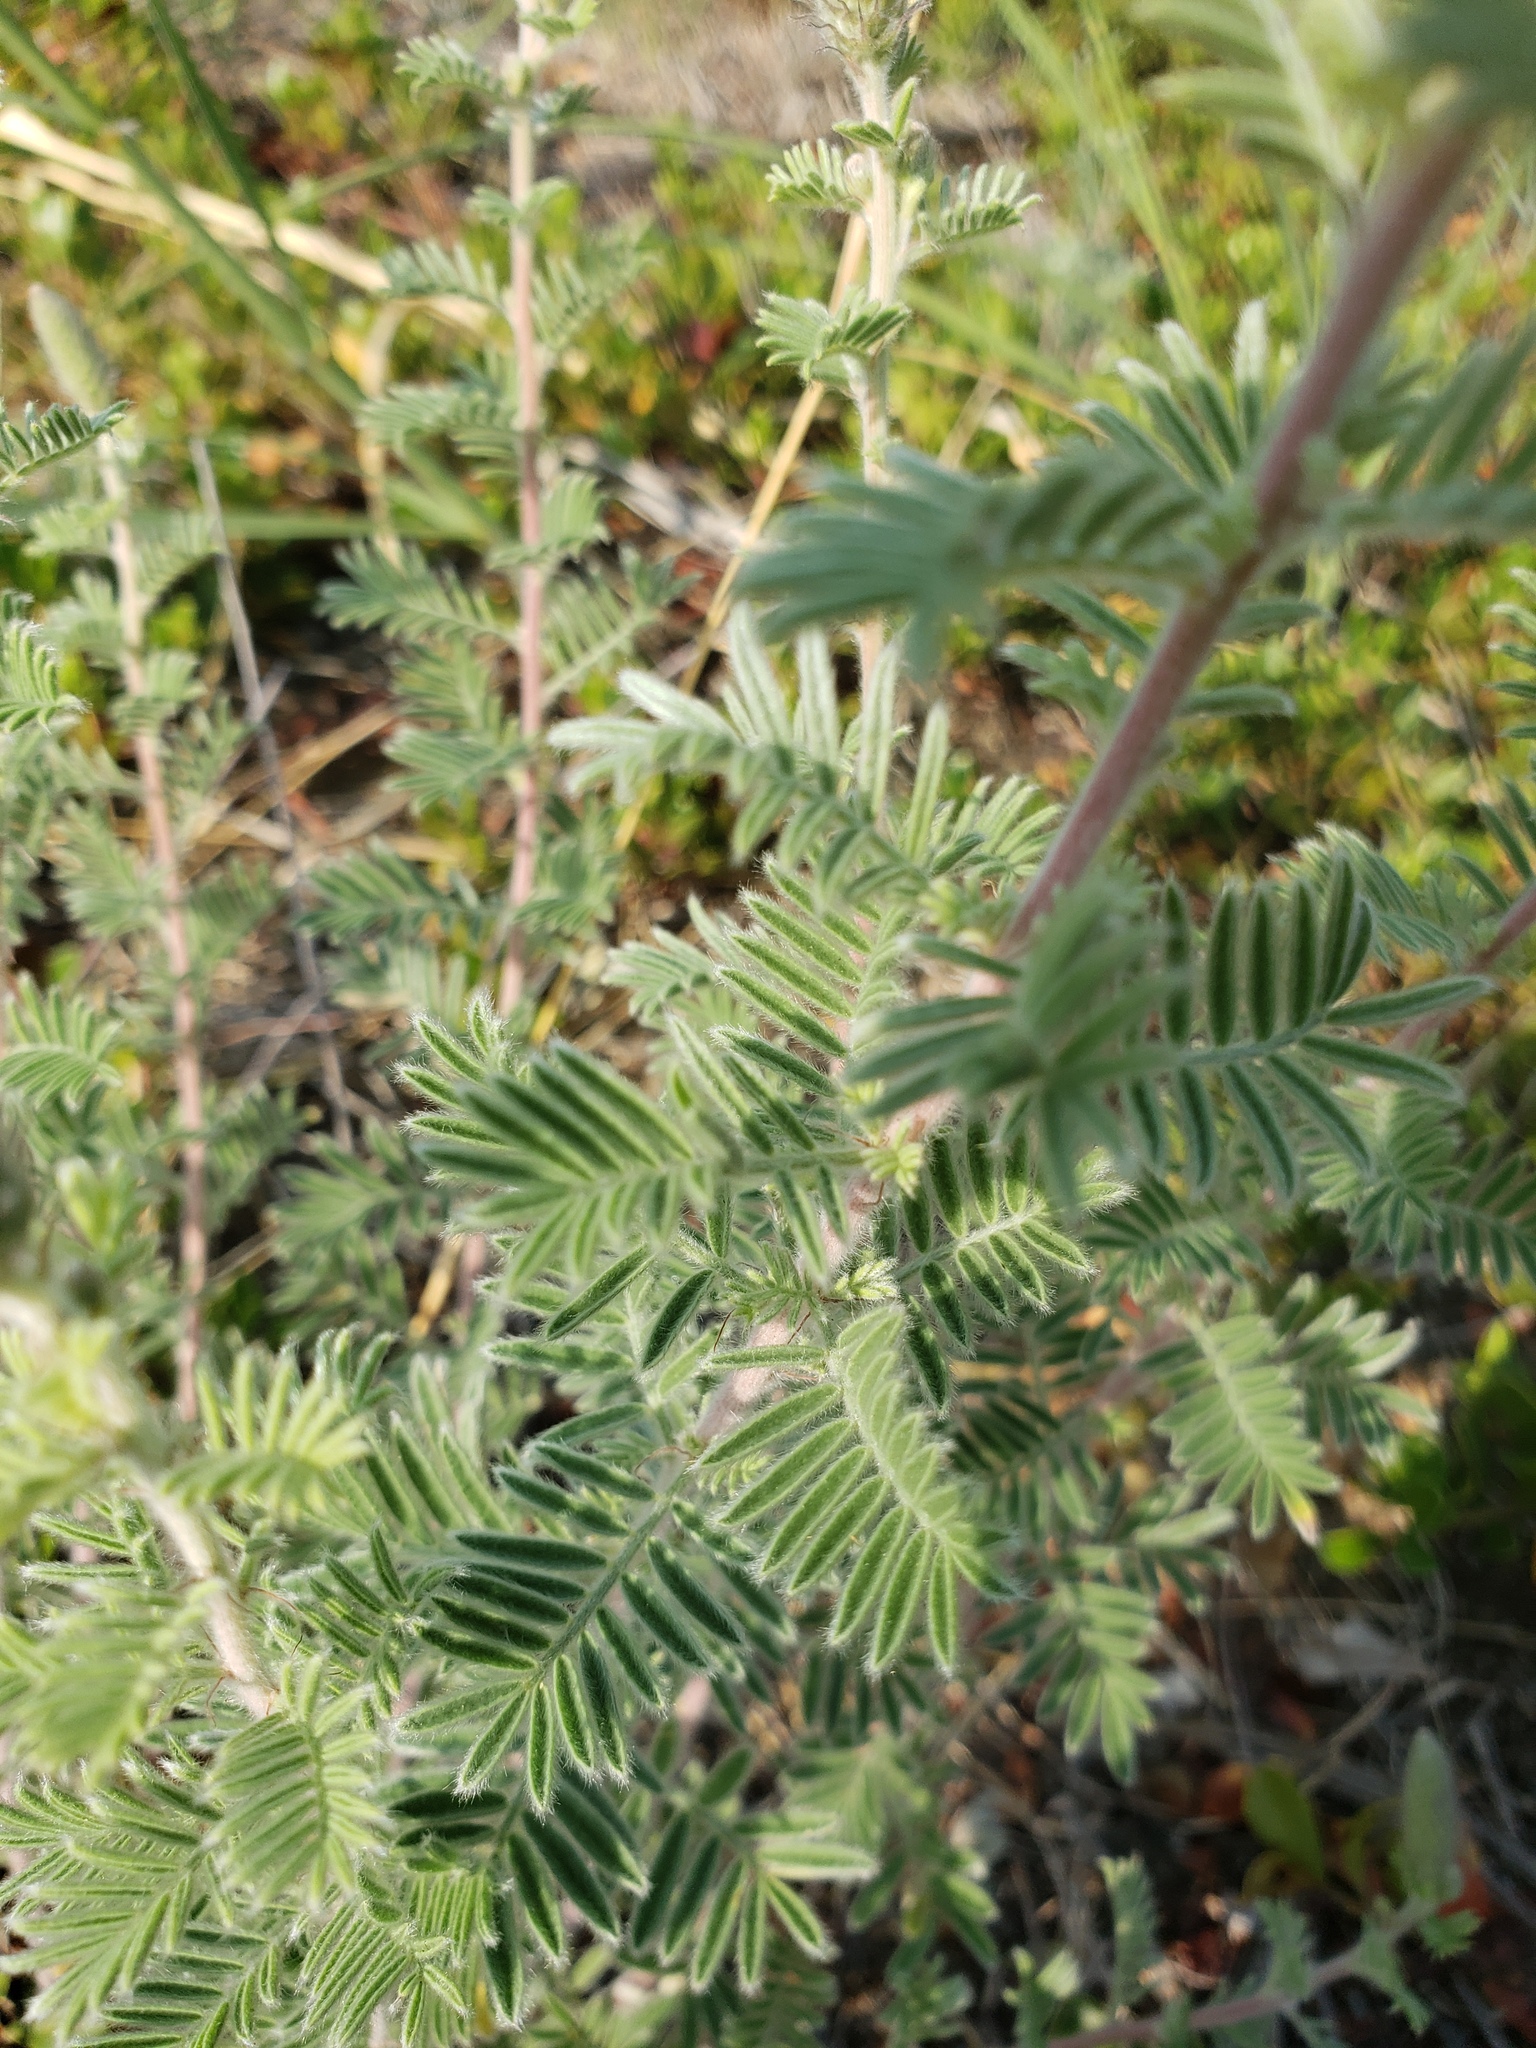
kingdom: Plantae
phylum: Tracheophyta
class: Magnoliopsida
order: Fabales
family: Fabaceae
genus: Dalea
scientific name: Dalea villosa
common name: Silky prairie-clover
